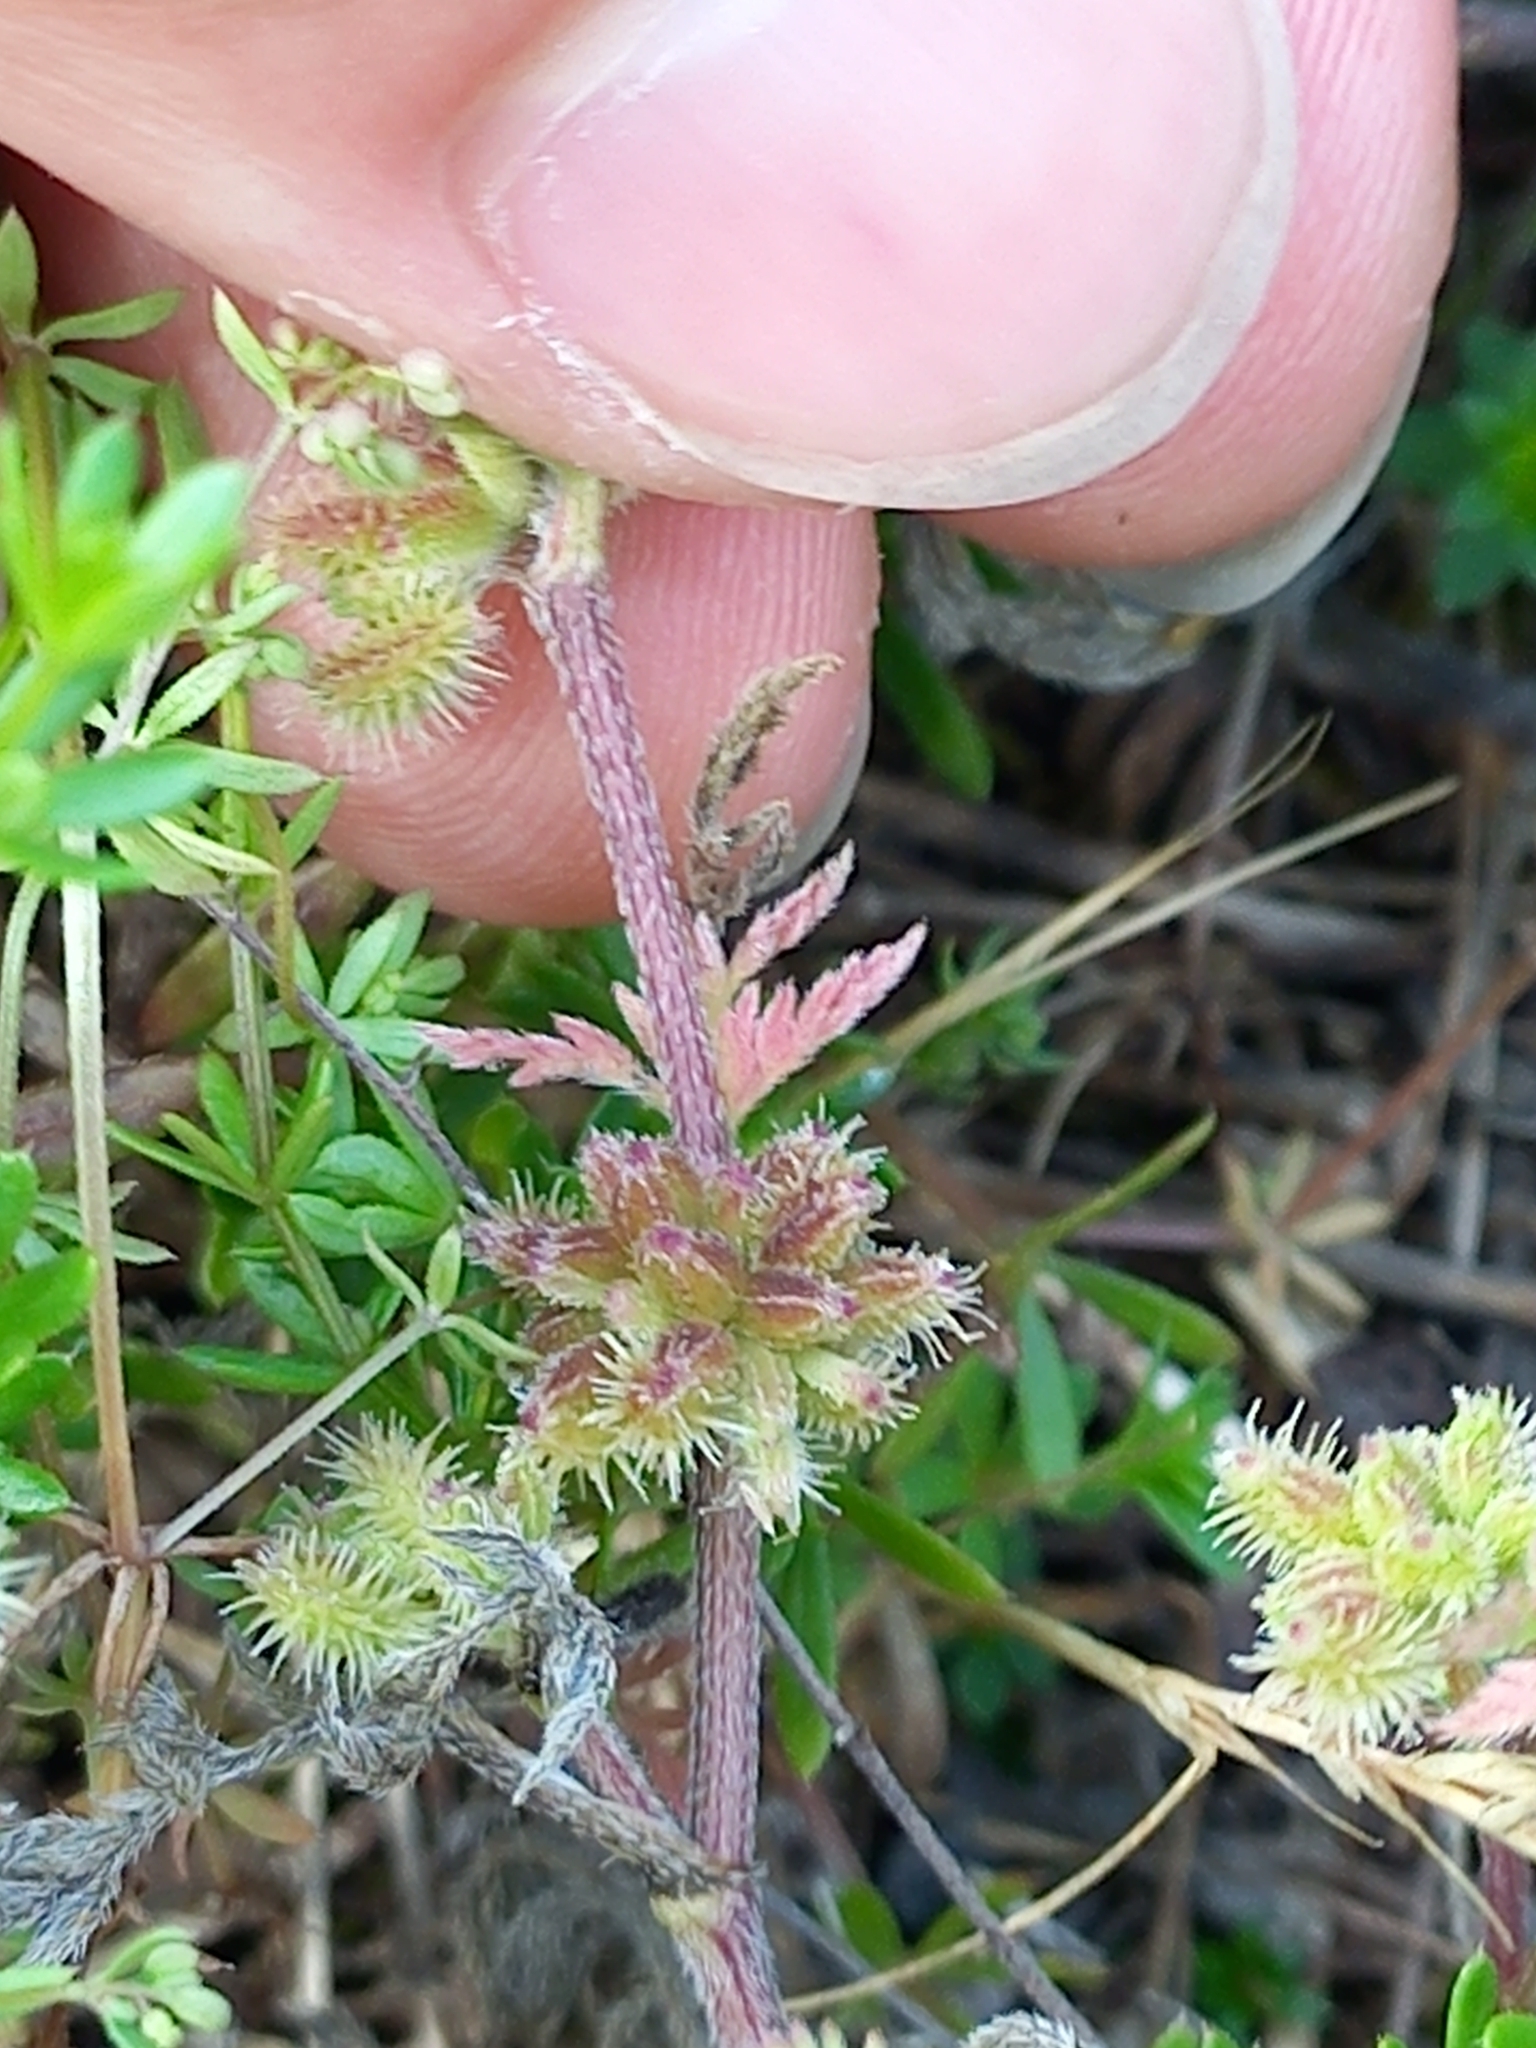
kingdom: Plantae
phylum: Tracheophyta
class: Magnoliopsida
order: Apiales
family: Apiaceae
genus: Torilis
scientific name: Torilis nodosa
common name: Knotted hedge-parsley
